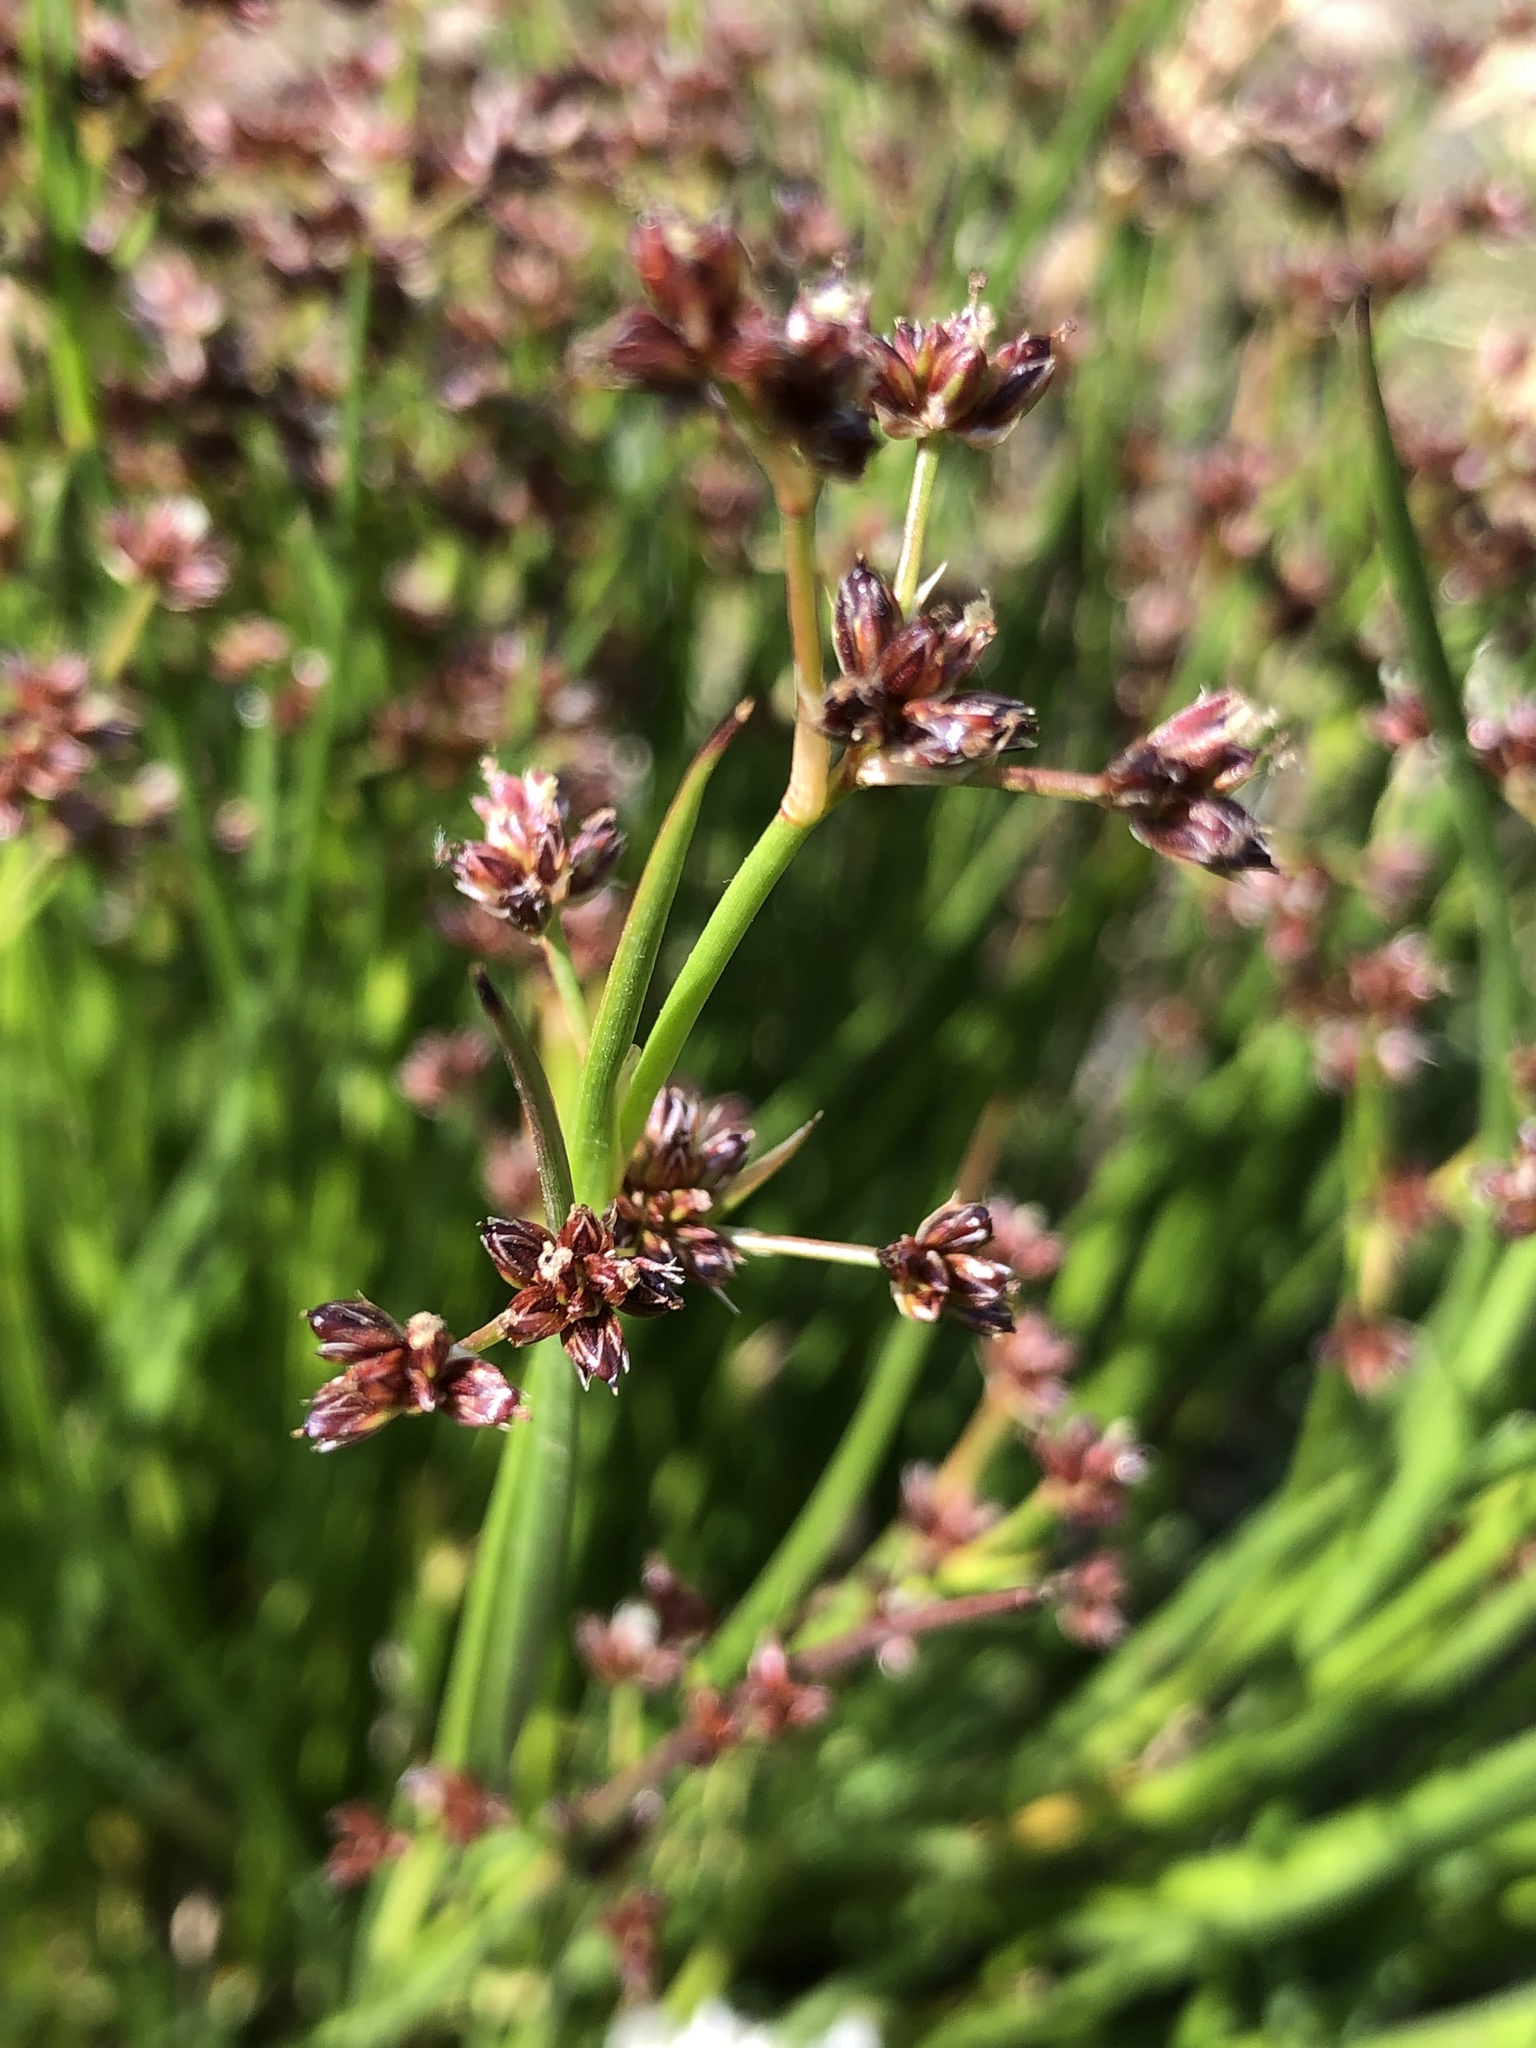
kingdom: Plantae
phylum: Tracheophyta
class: Liliopsida
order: Poales
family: Juncaceae
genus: Juncus
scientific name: Juncus articulatus
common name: Jointed rush
